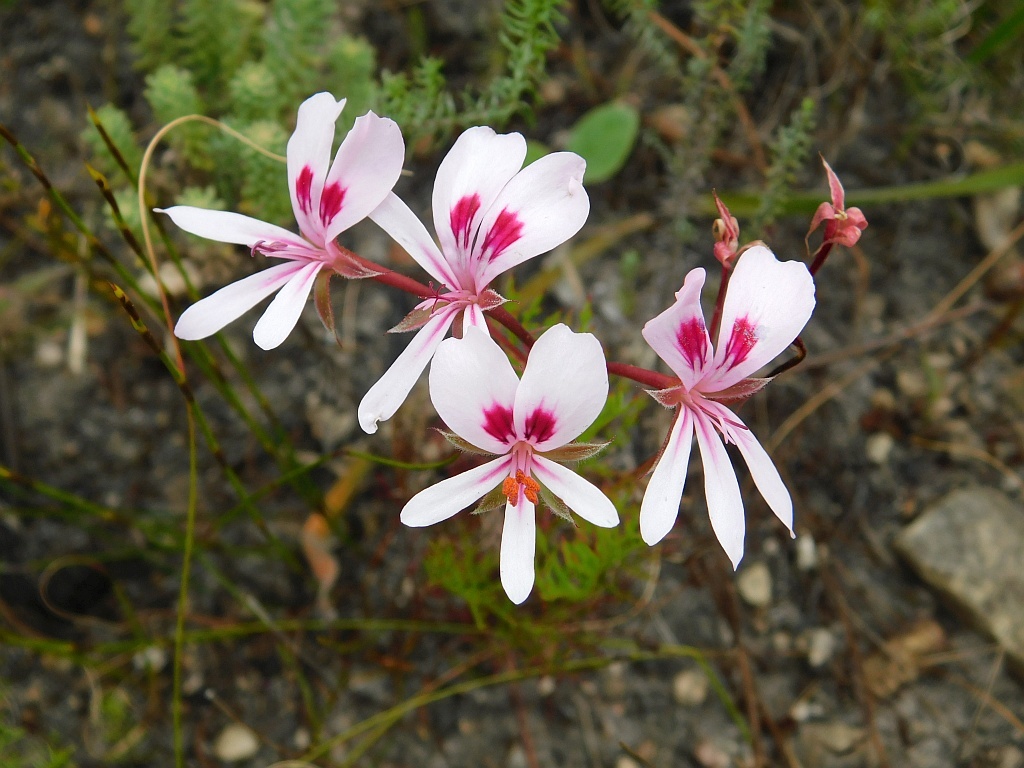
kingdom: Plantae
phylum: Tracheophyta
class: Magnoliopsida
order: Geraniales
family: Geraniaceae
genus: Pelargonium
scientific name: Pelargonium artemisiifolium
